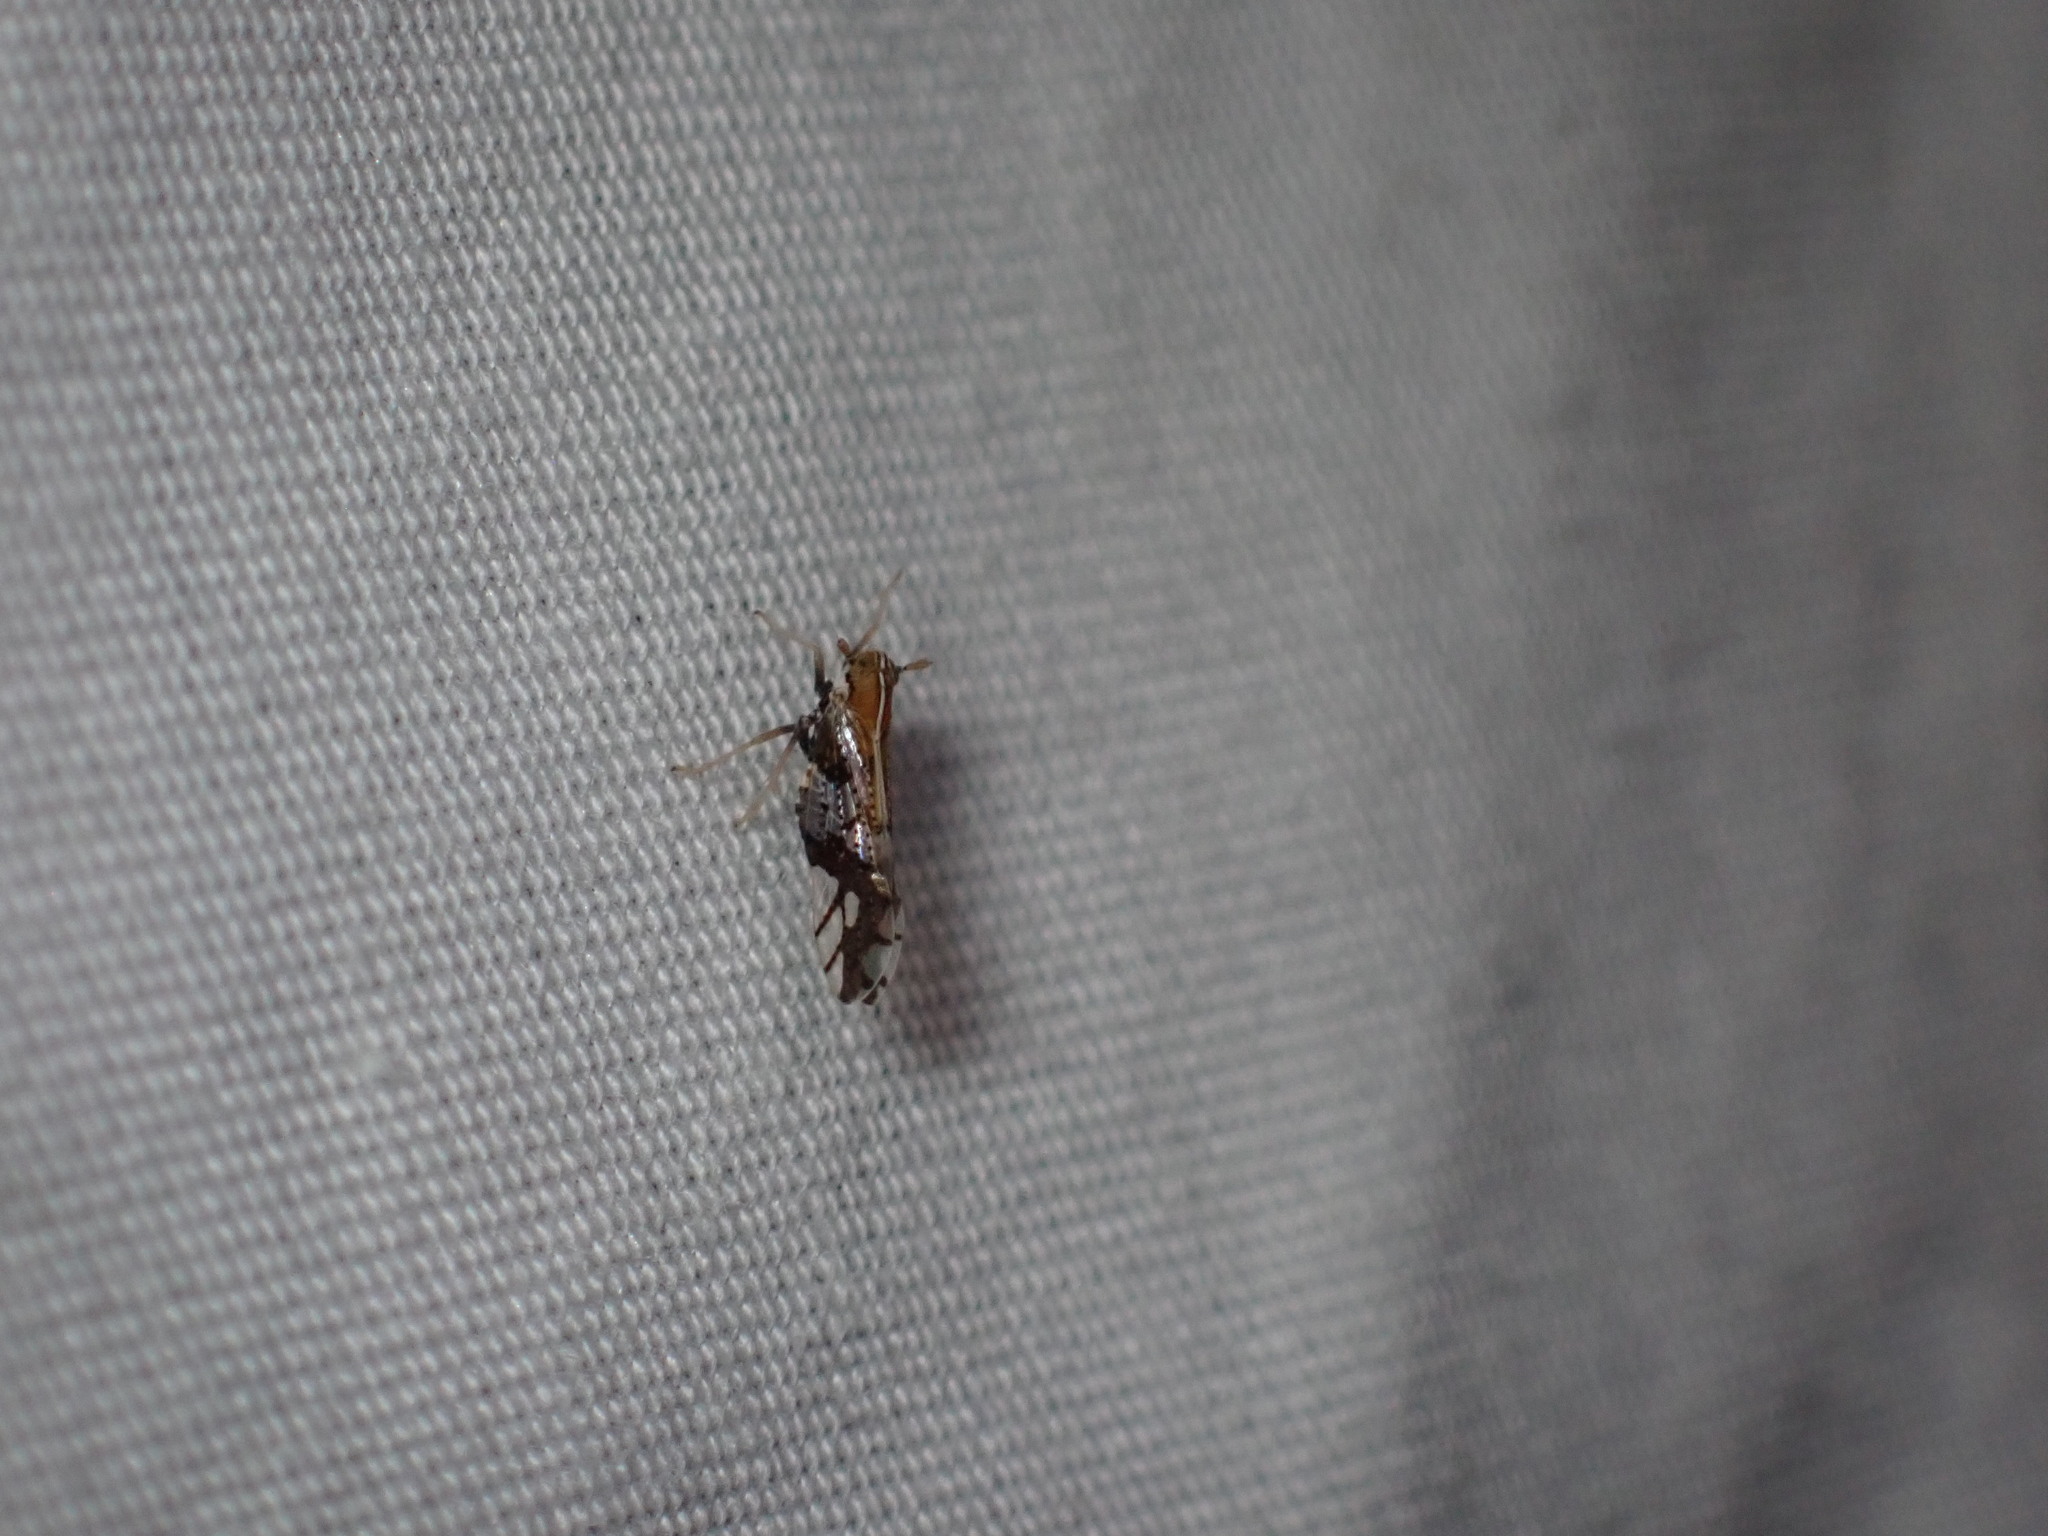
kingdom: Animalia
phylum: Arthropoda
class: Insecta
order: Hemiptera
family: Delphacidae
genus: Liburniella
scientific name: Liburniella ornata
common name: Ornate planthopper
